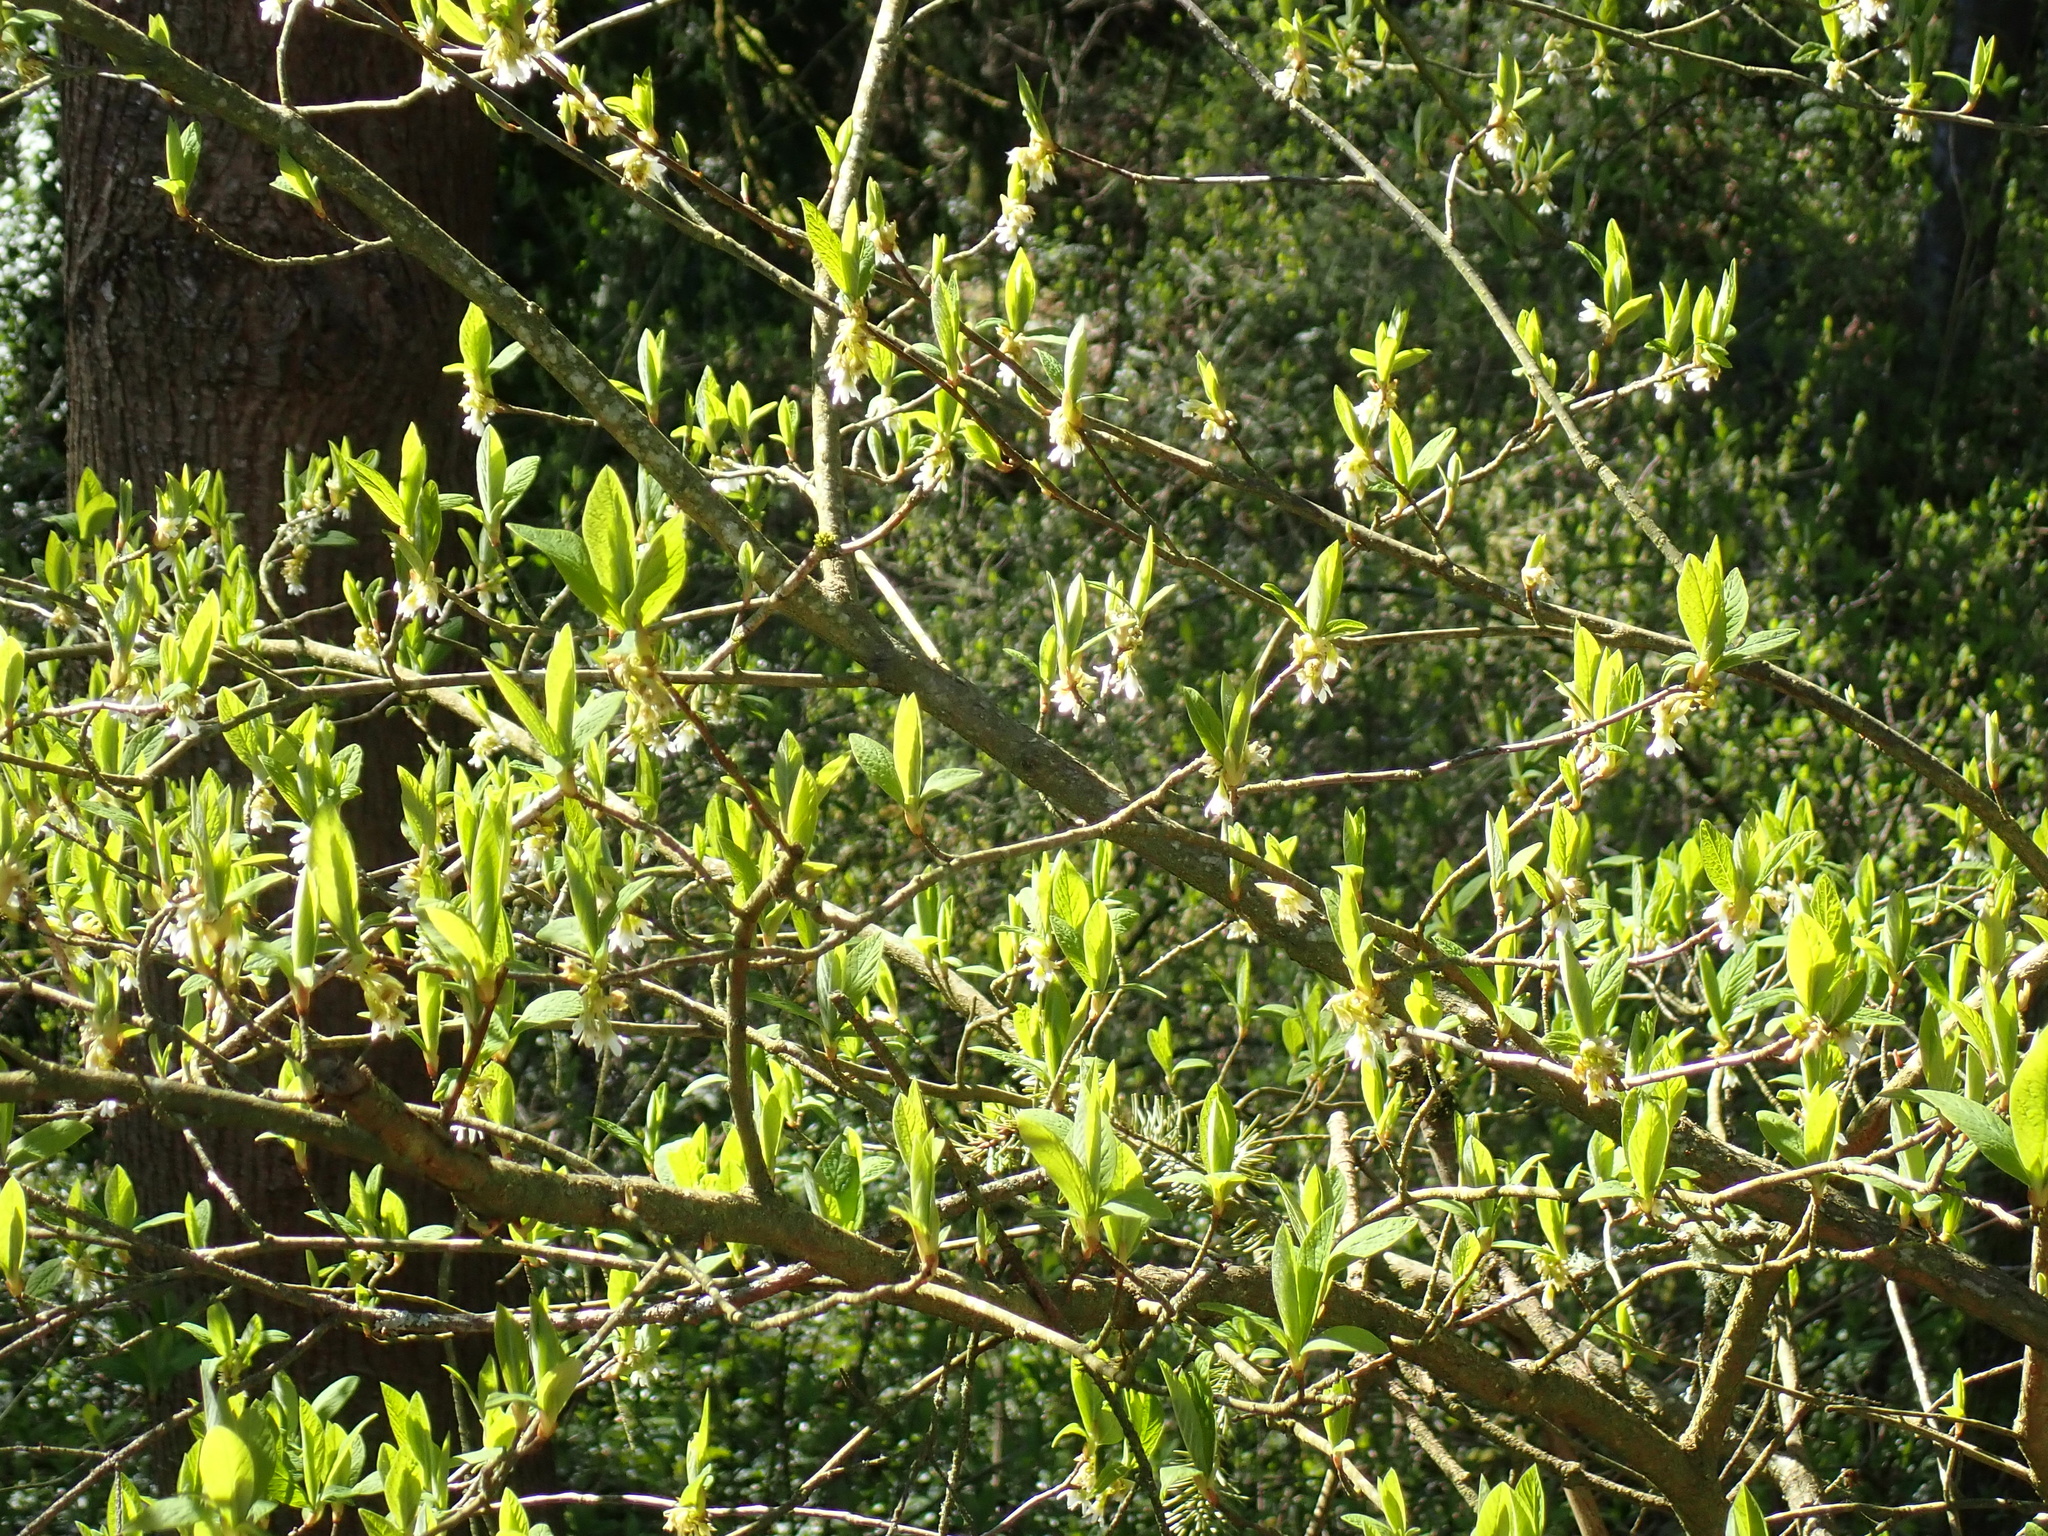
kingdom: Plantae
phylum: Tracheophyta
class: Magnoliopsida
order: Rosales
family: Rosaceae
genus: Oemleria
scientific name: Oemleria cerasiformis
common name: Osoberry
